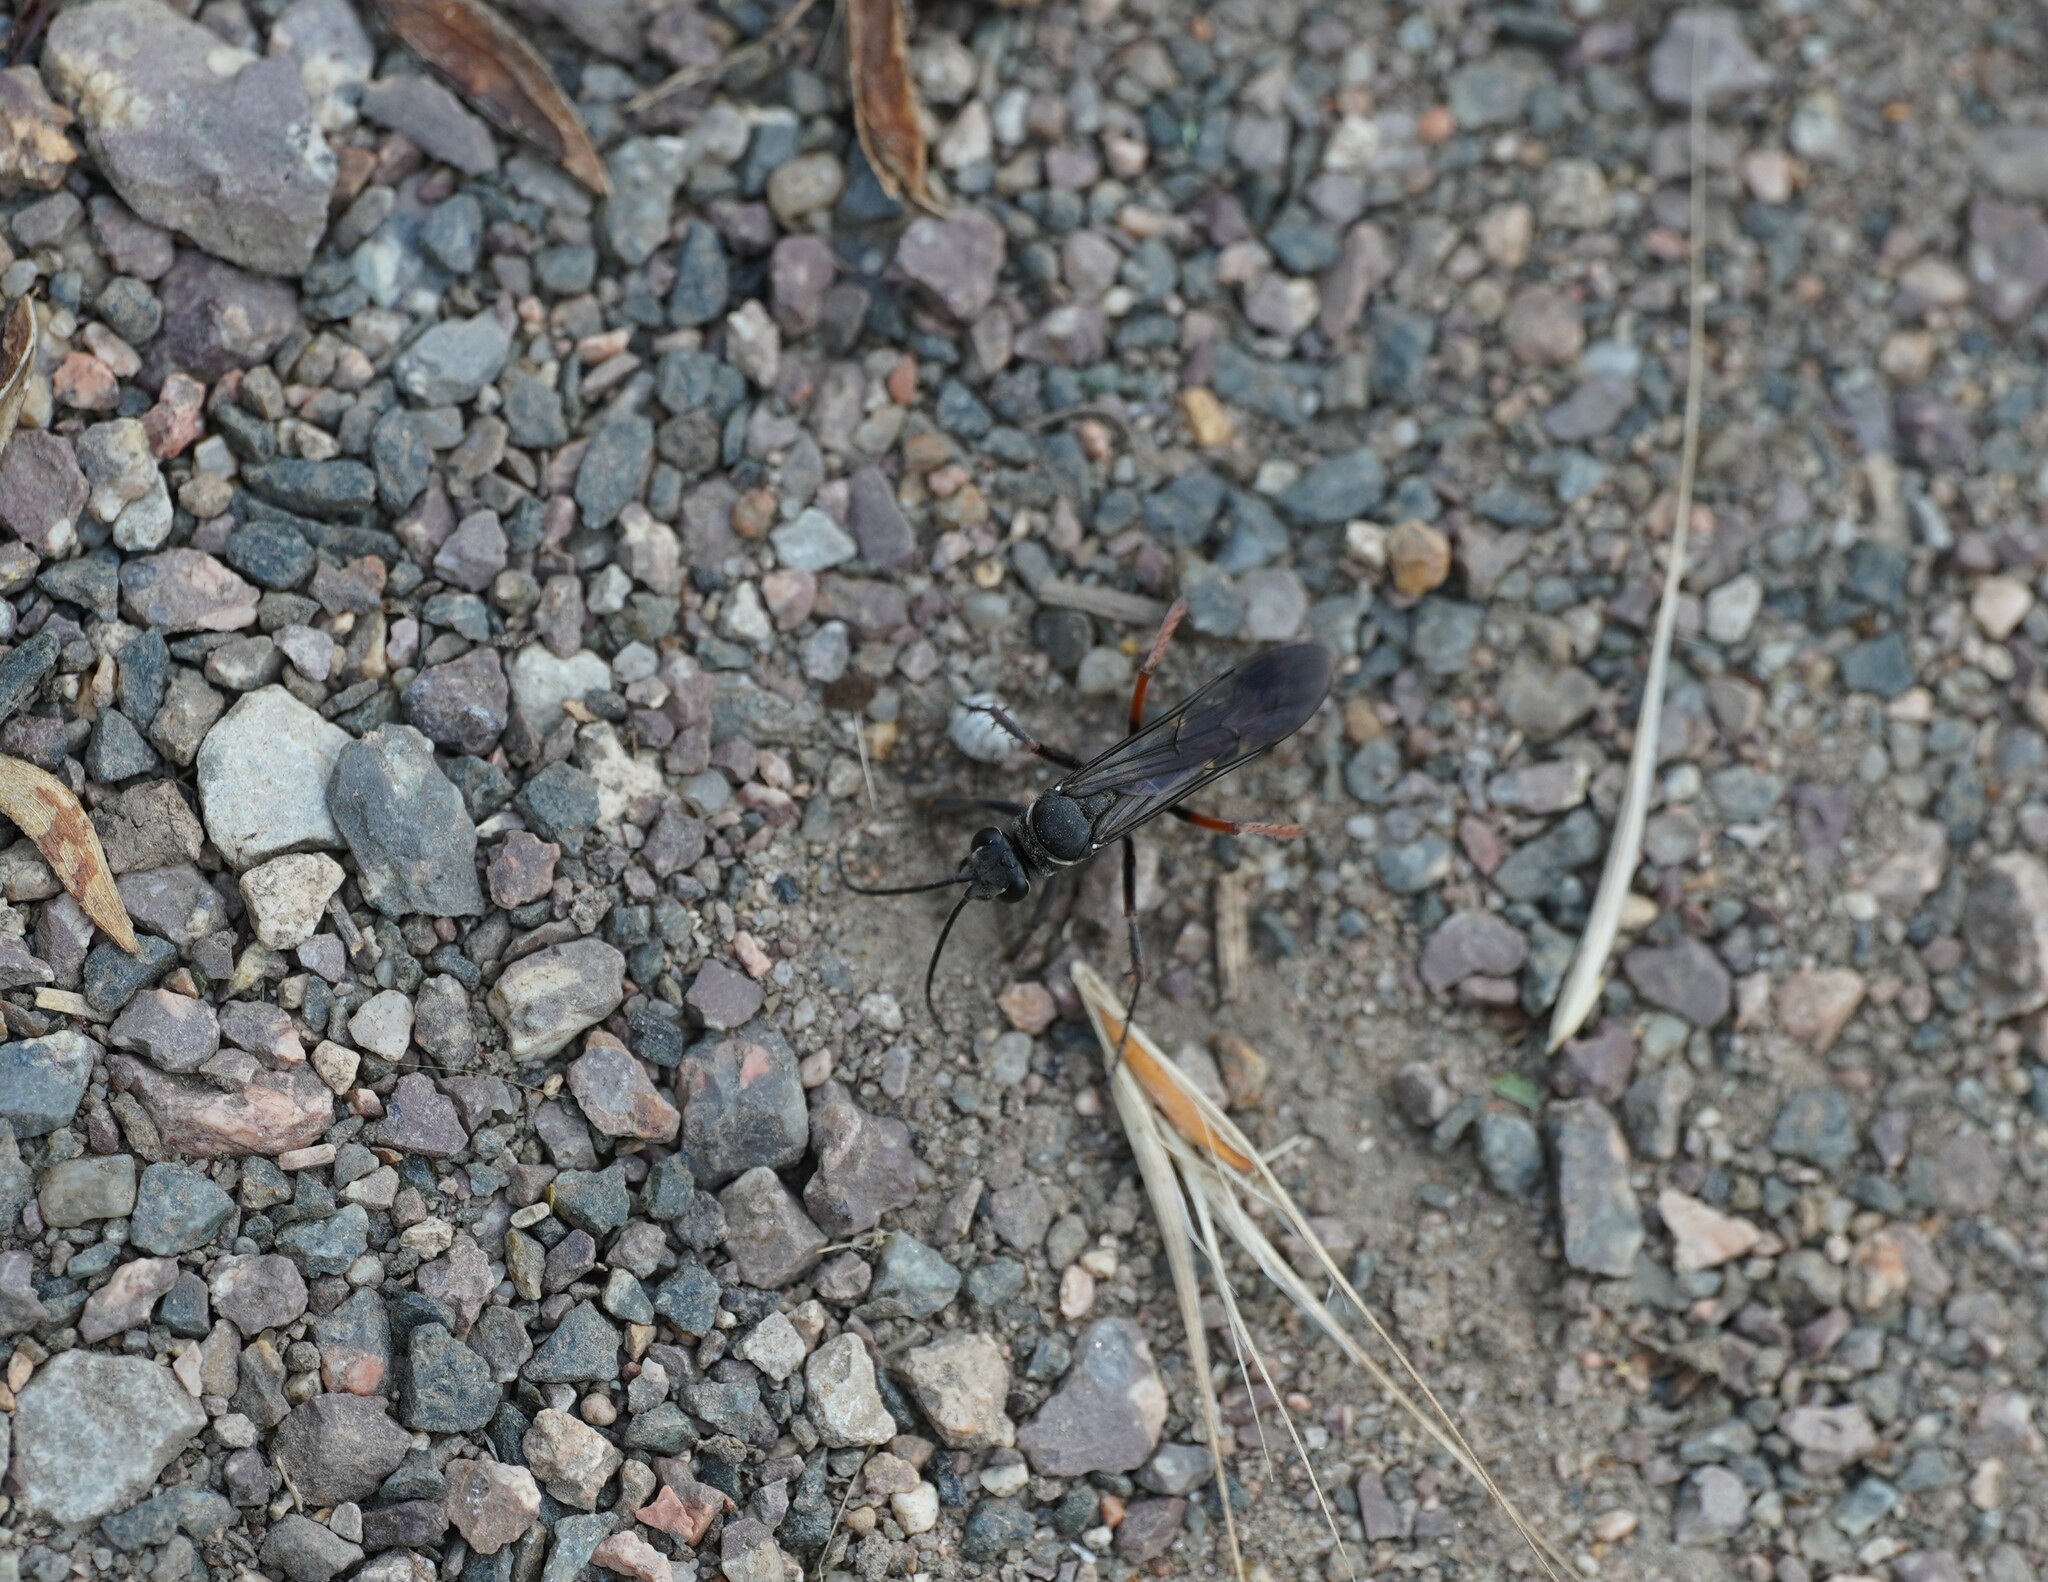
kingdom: Animalia
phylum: Arthropoda
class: Insecta
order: Hymenoptera
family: Pompilidae
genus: Episyron
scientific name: Episyron rufipes
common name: Red legged spider wasp
